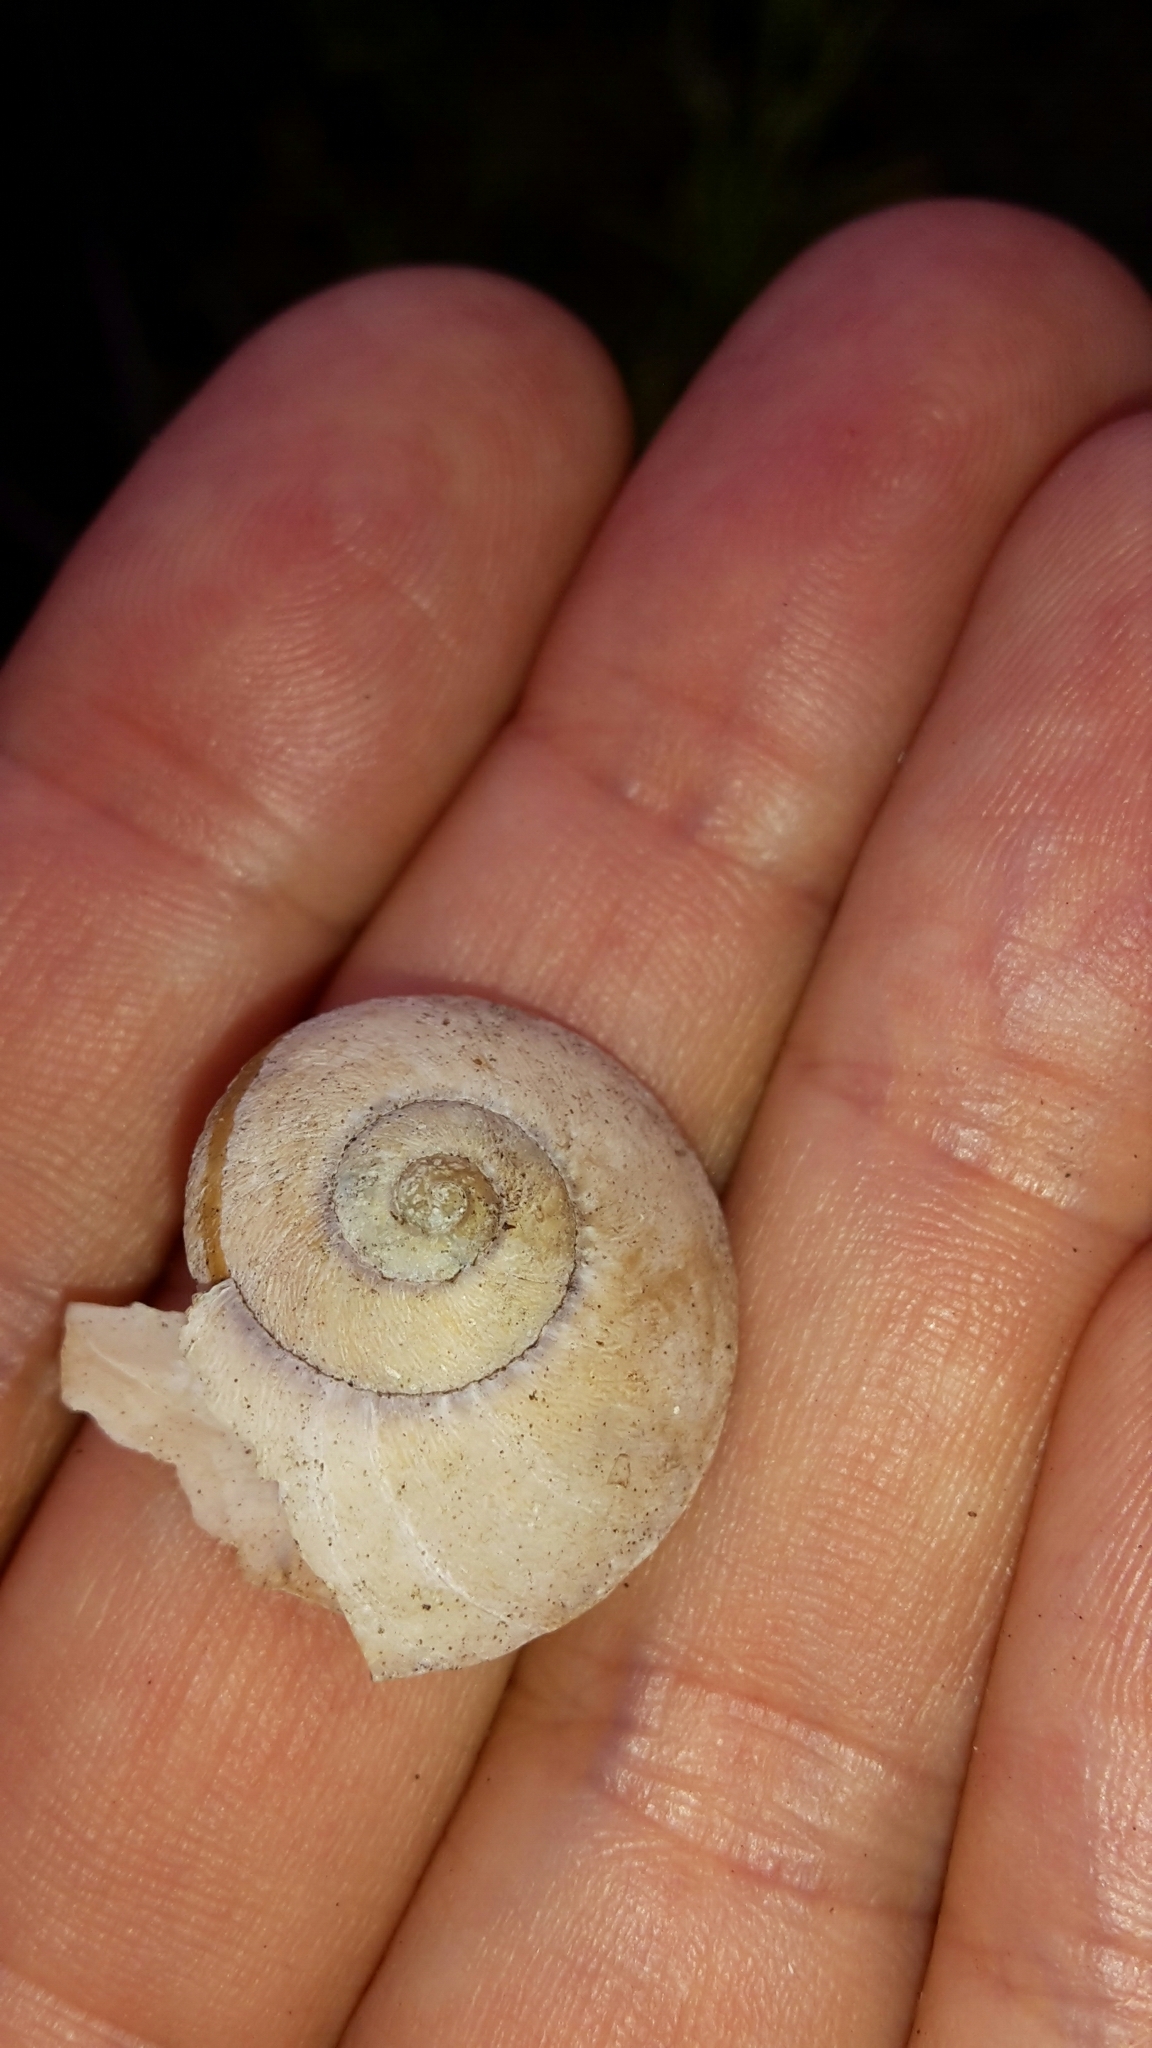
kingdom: Animalia
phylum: Mollusca
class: Gastropoda
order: Stylommatophora
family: Rhytididae
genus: Amborhytida
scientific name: Amborhytida dunniae
